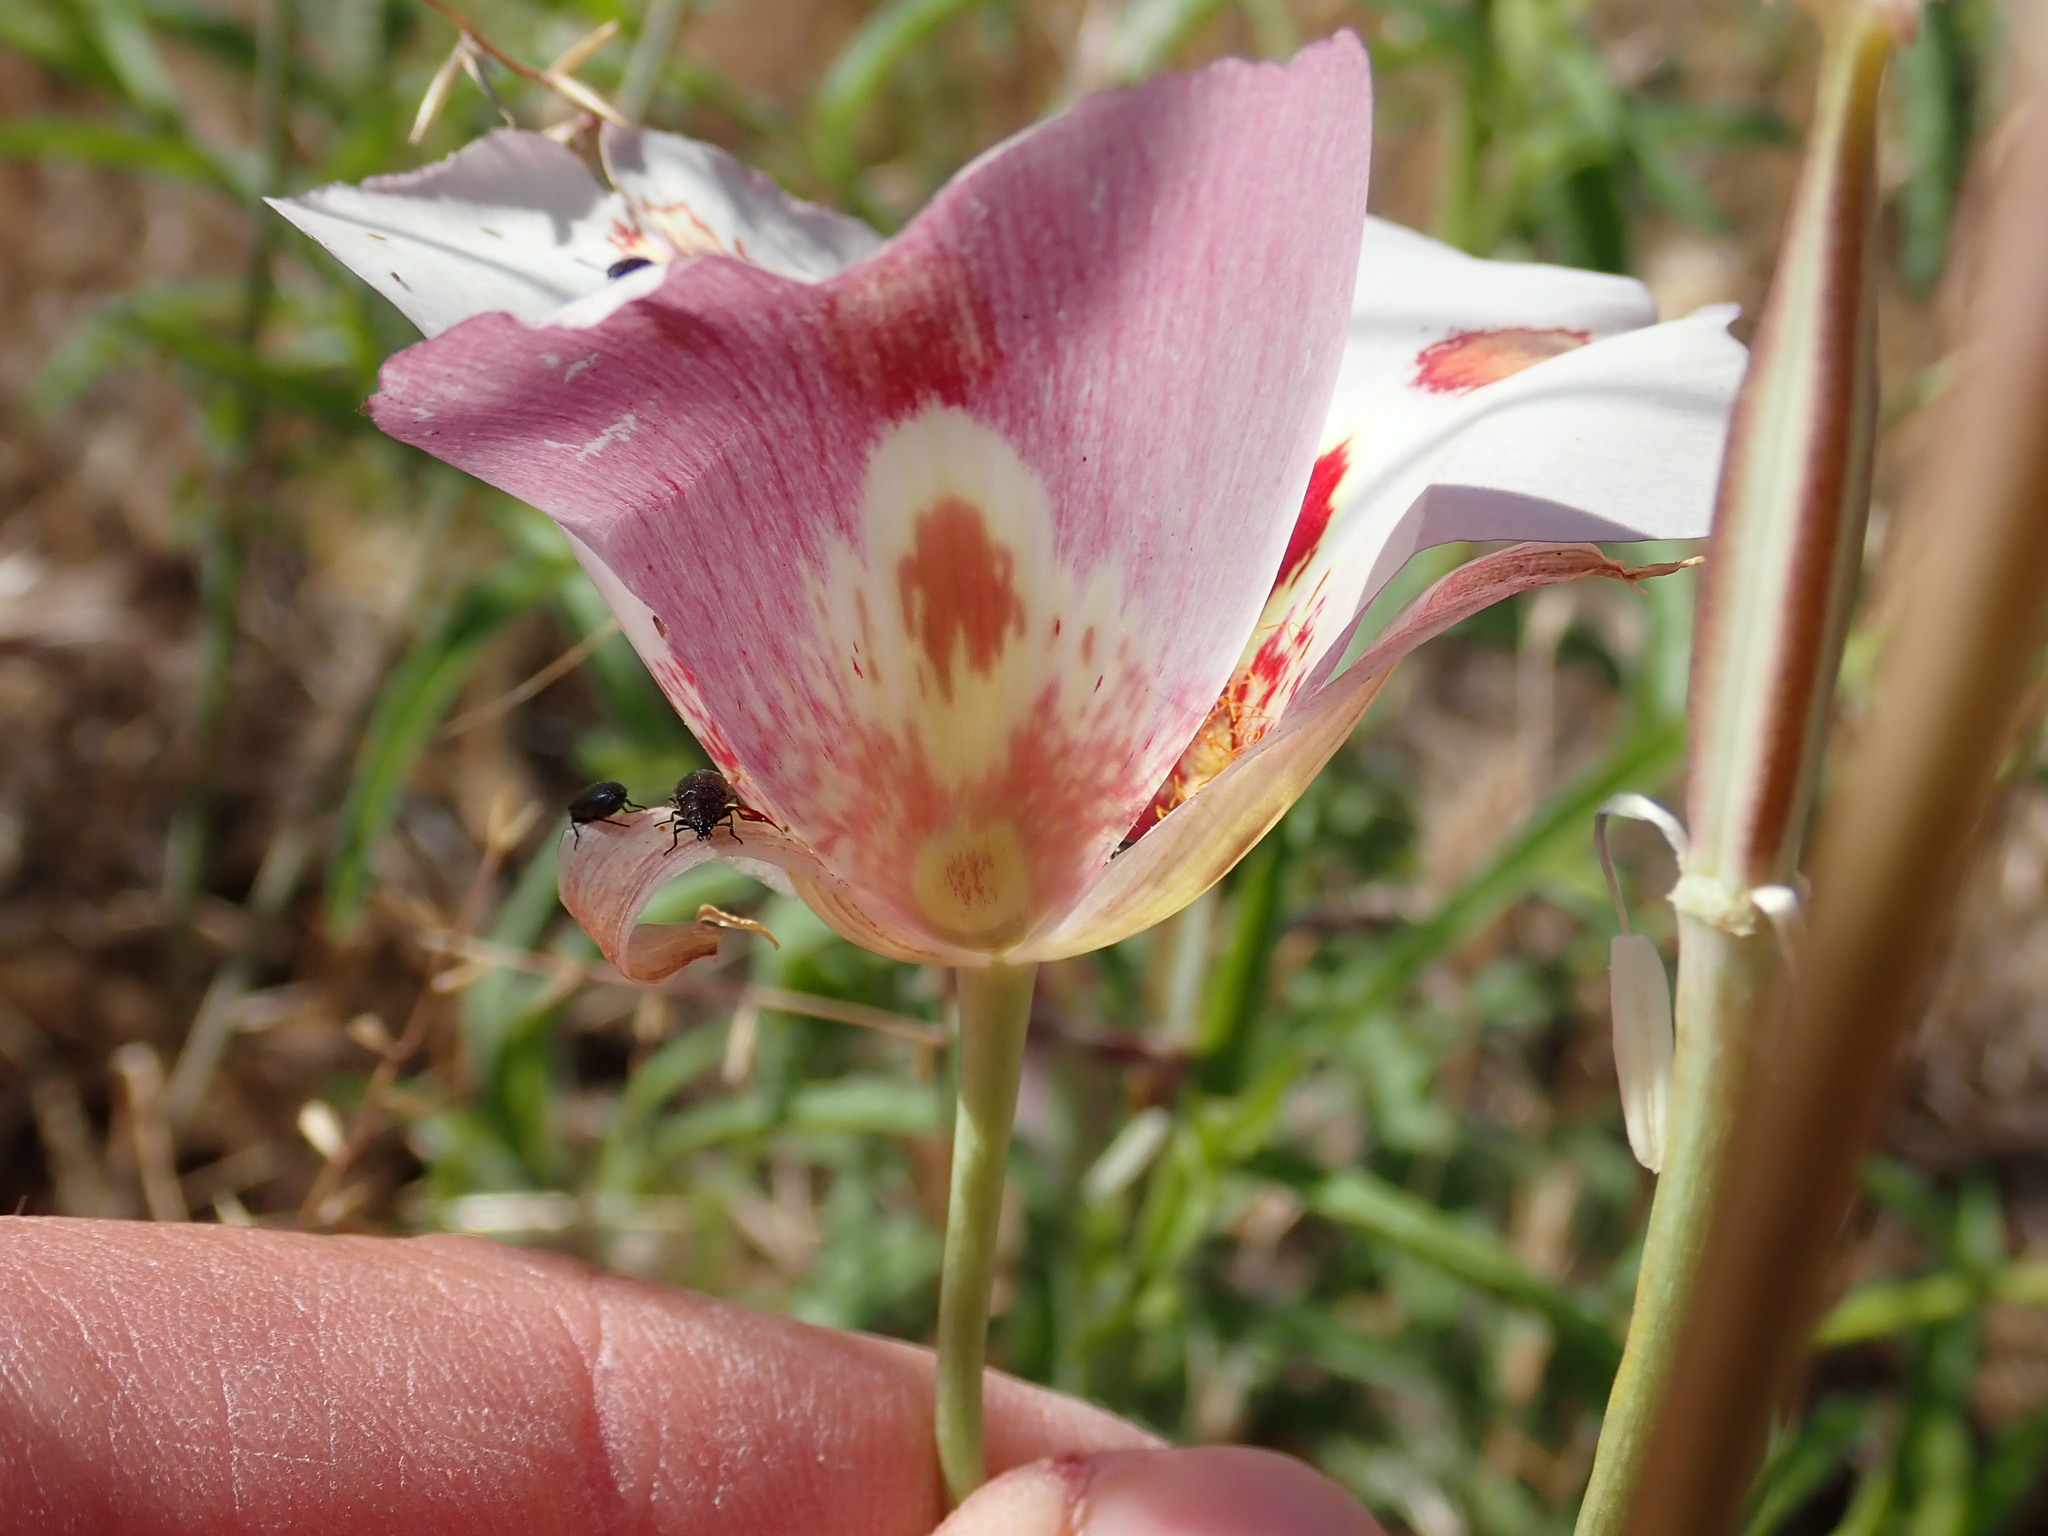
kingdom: Plantae
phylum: Tracheophyta
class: Liliopsida
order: Liliales
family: Liliaceae
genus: Calochortus
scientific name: Calochortus venustus
